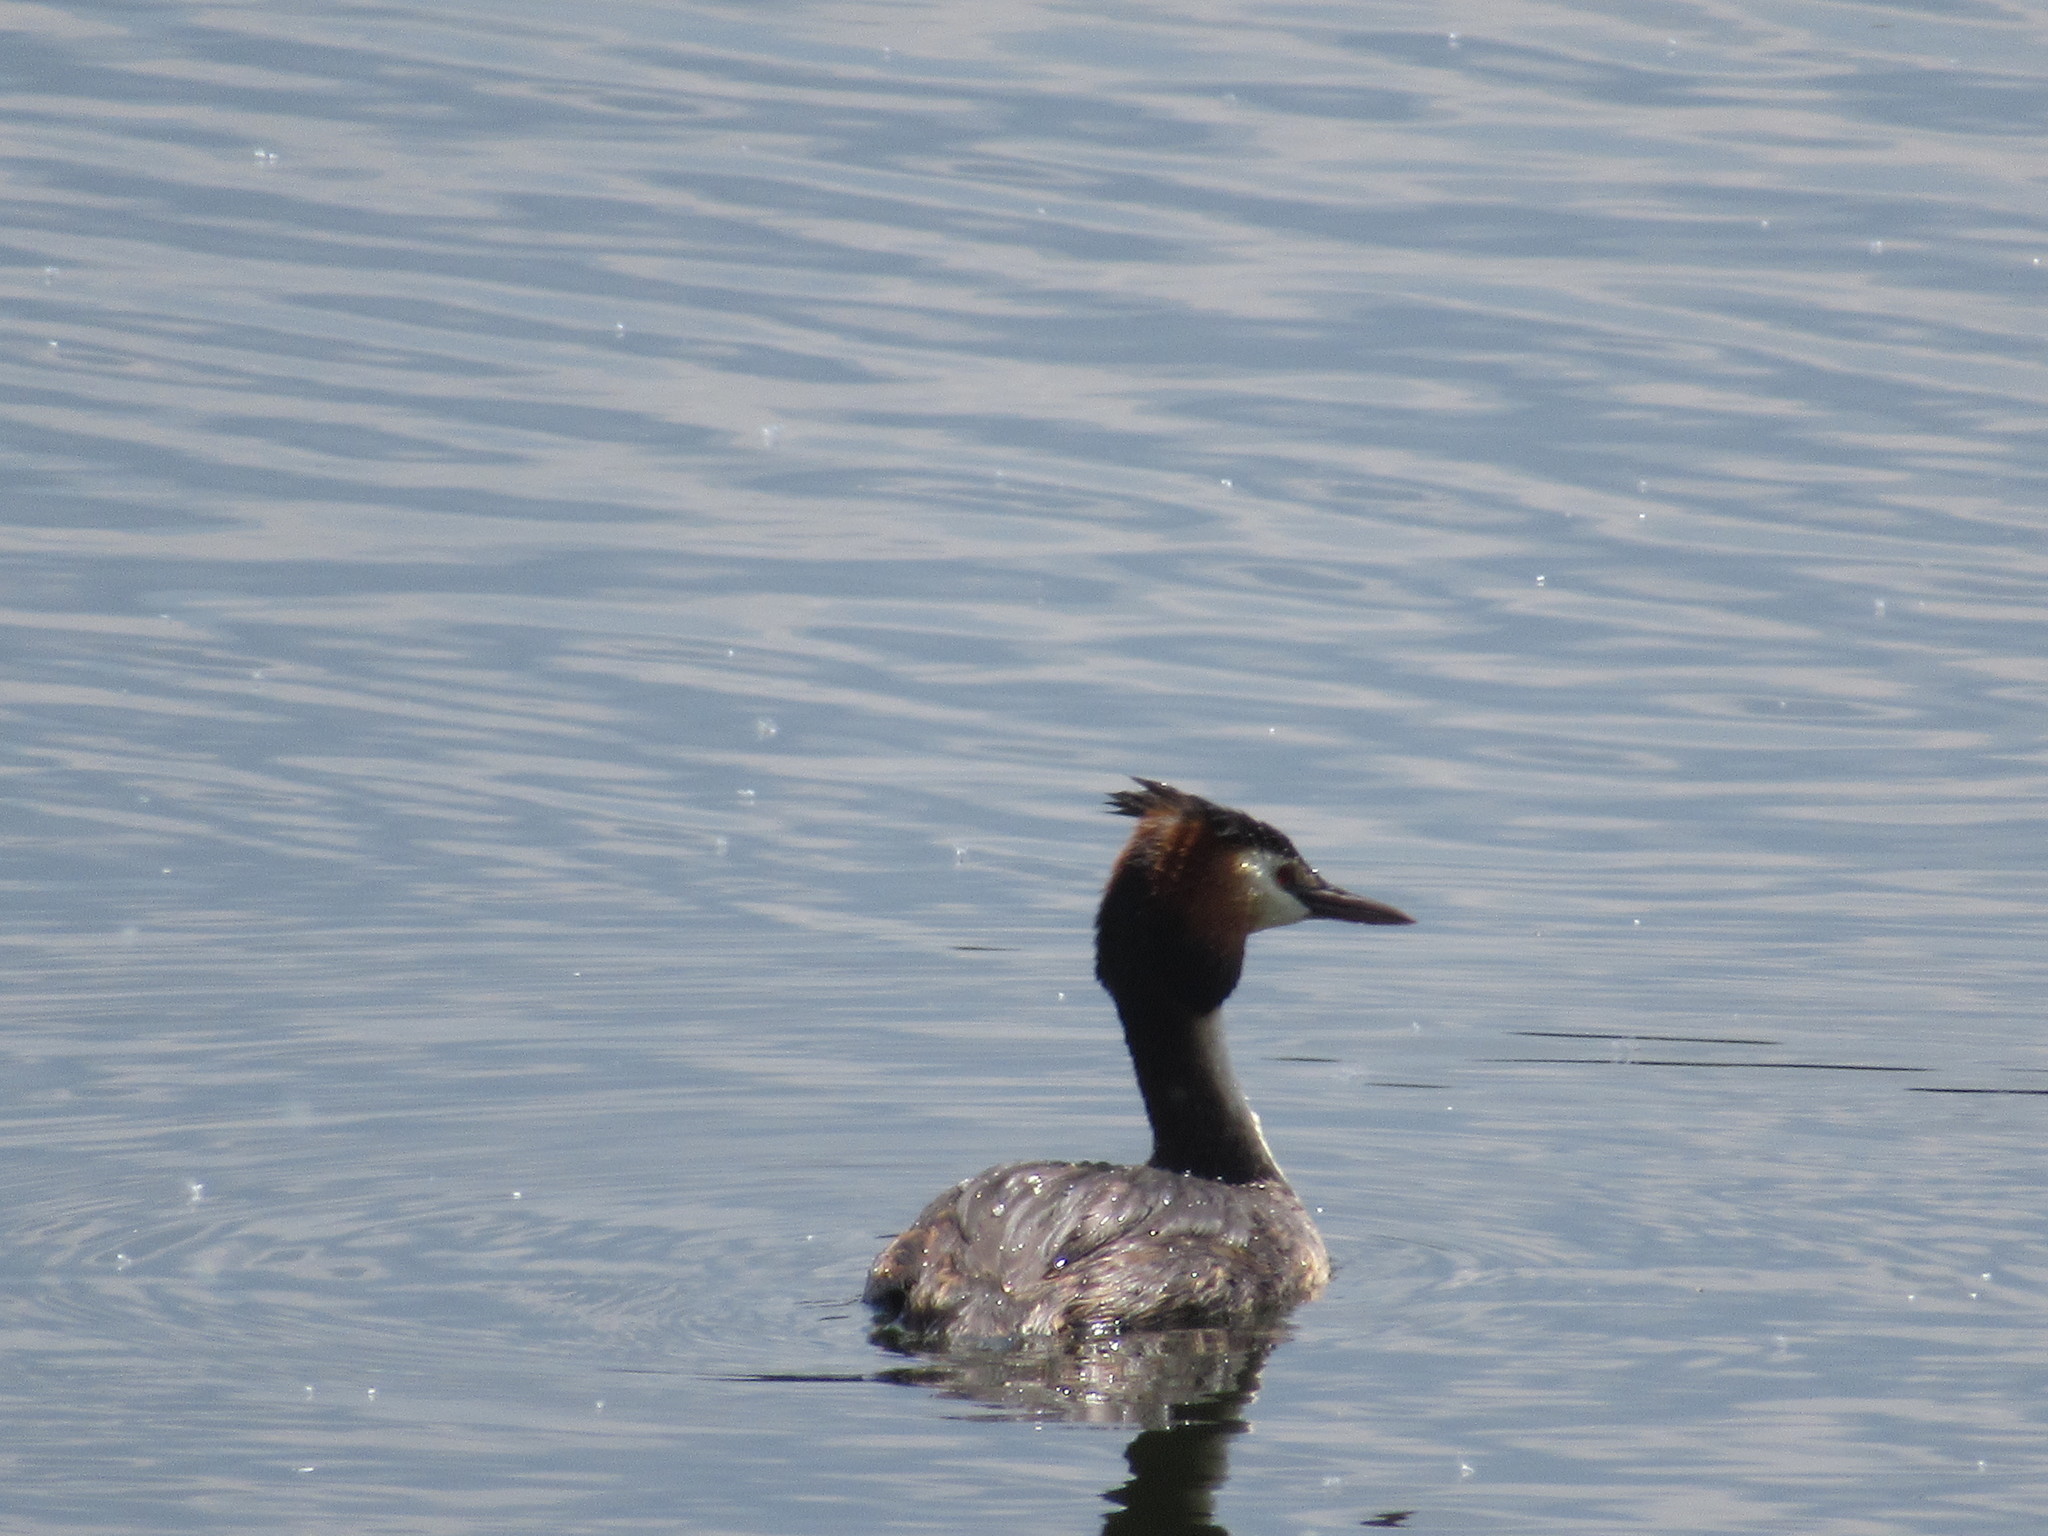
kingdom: Animalia
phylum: Chordata
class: Aves
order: Podicipediformes
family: Podicipedidae
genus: Podiceps
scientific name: Podiceps cristatus
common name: Great crested grebe
